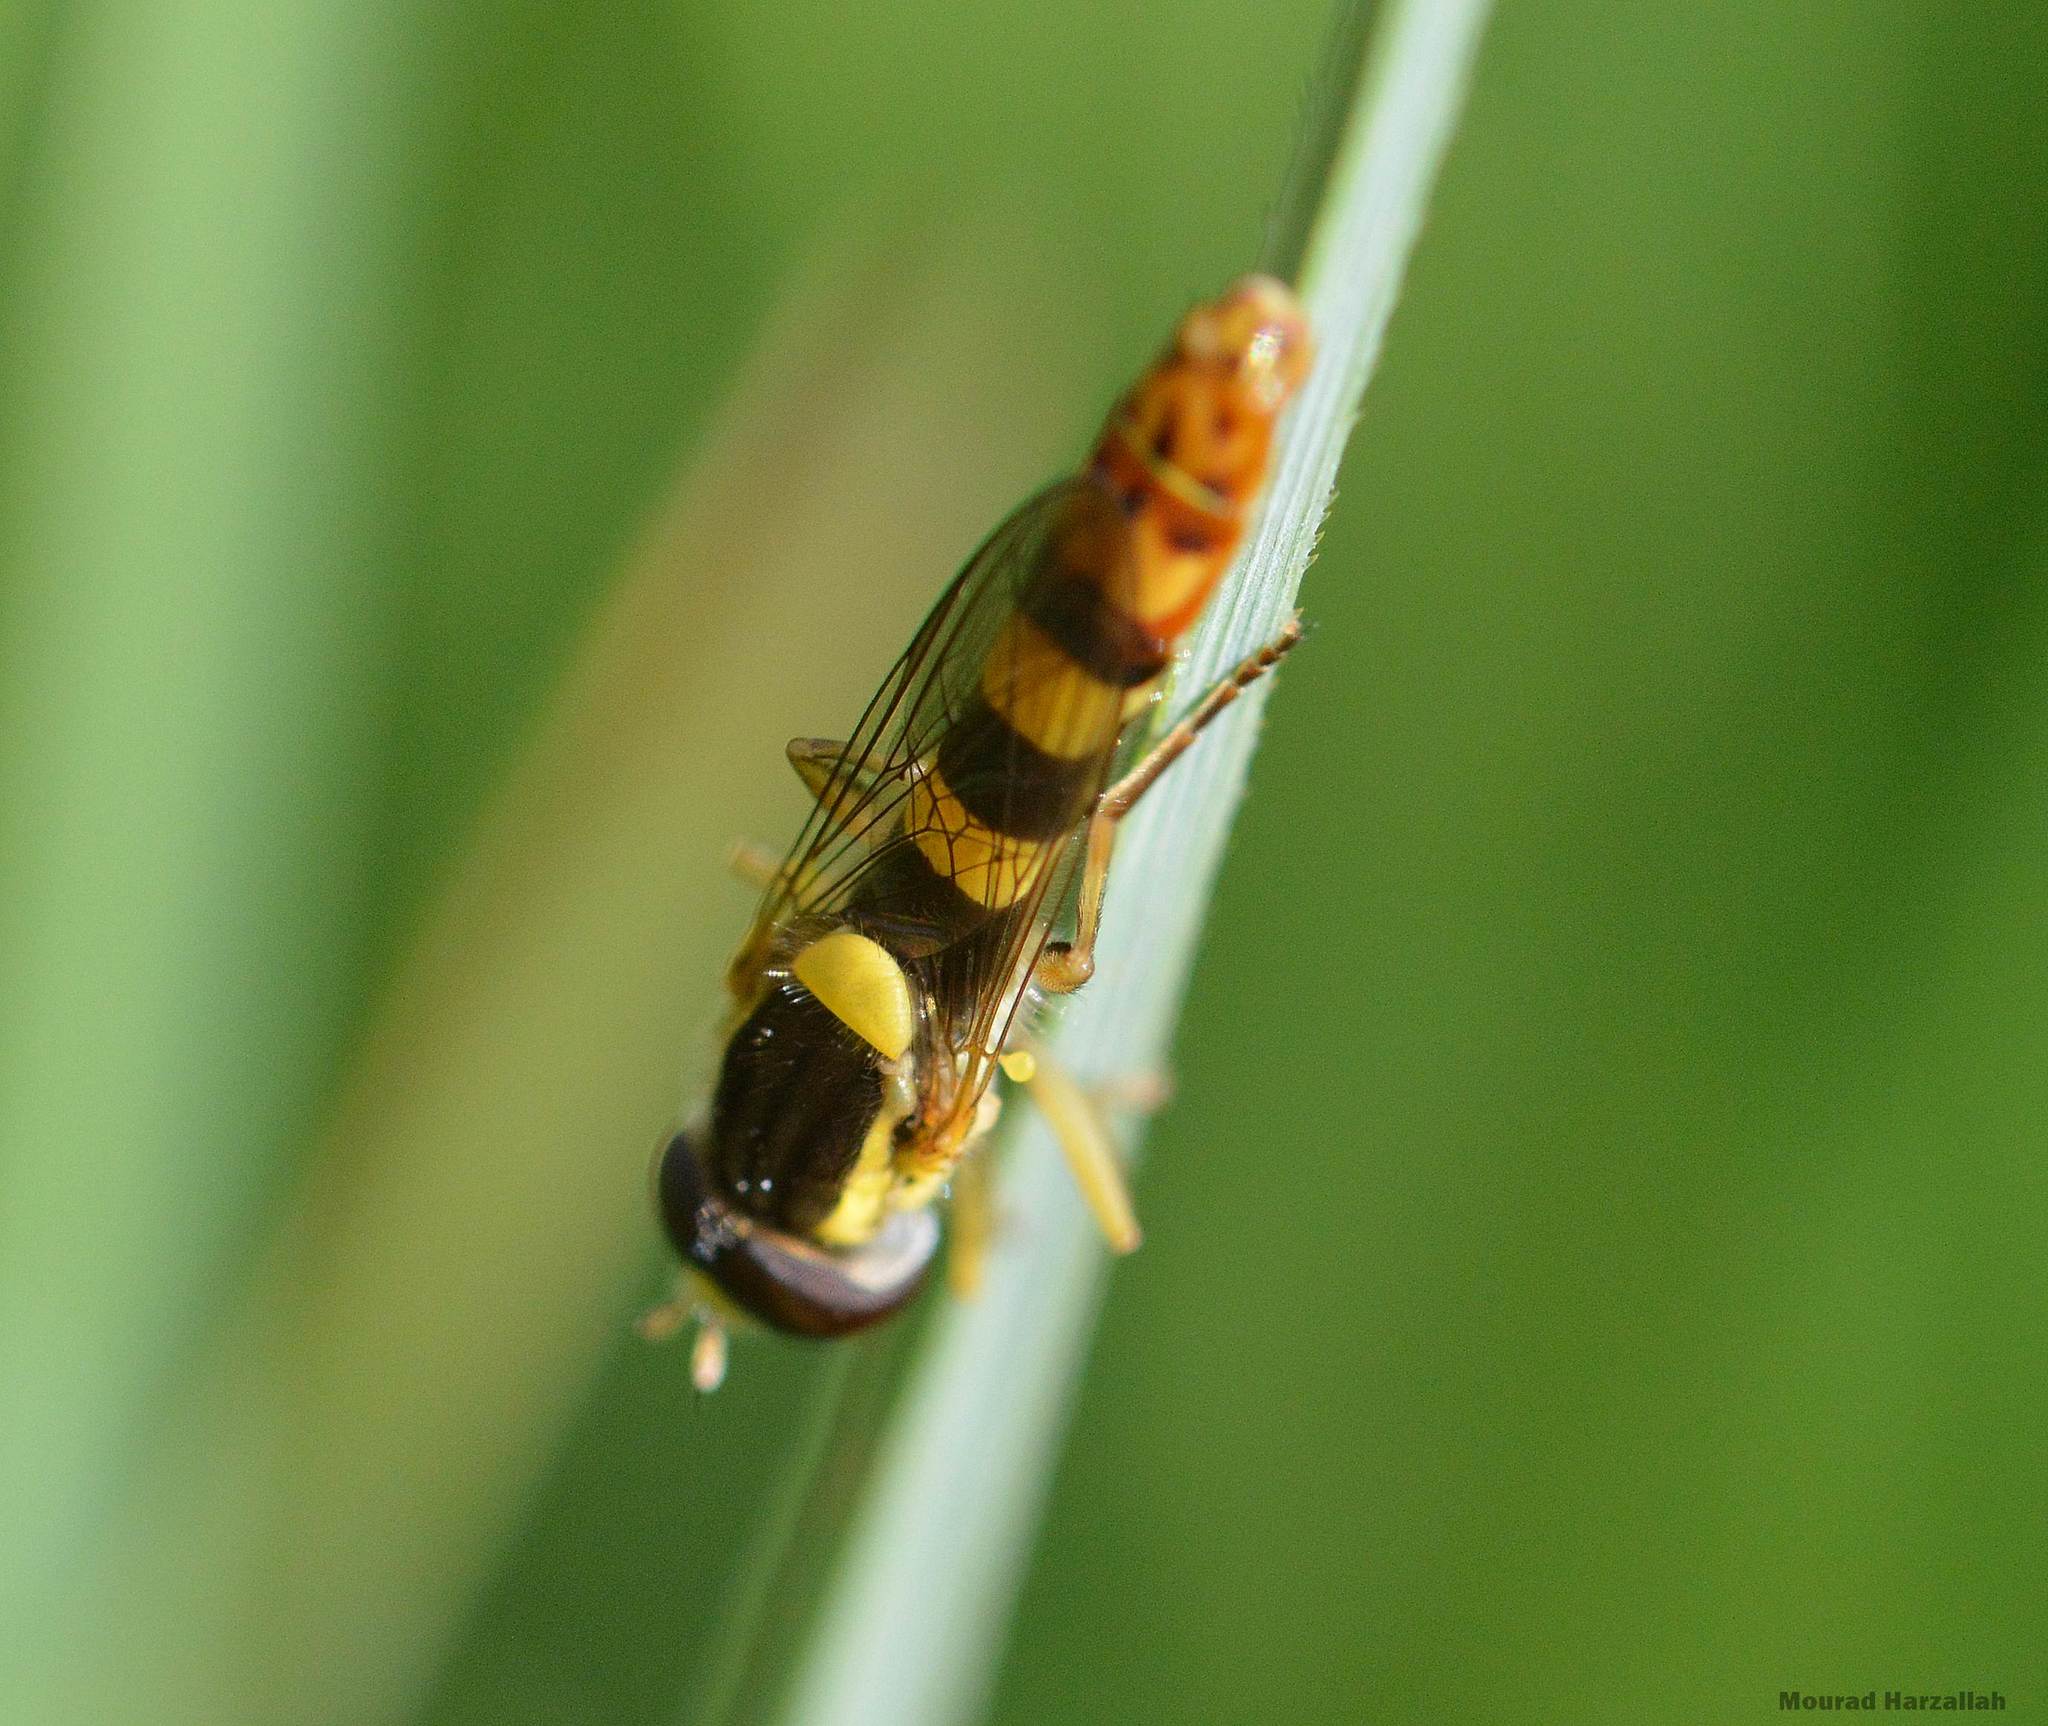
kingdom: Animalia
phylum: Arthropoda
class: Insecta
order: Diptera
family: Syrphidae
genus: Sphaerophoria
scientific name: Sphaerophoria scripta
